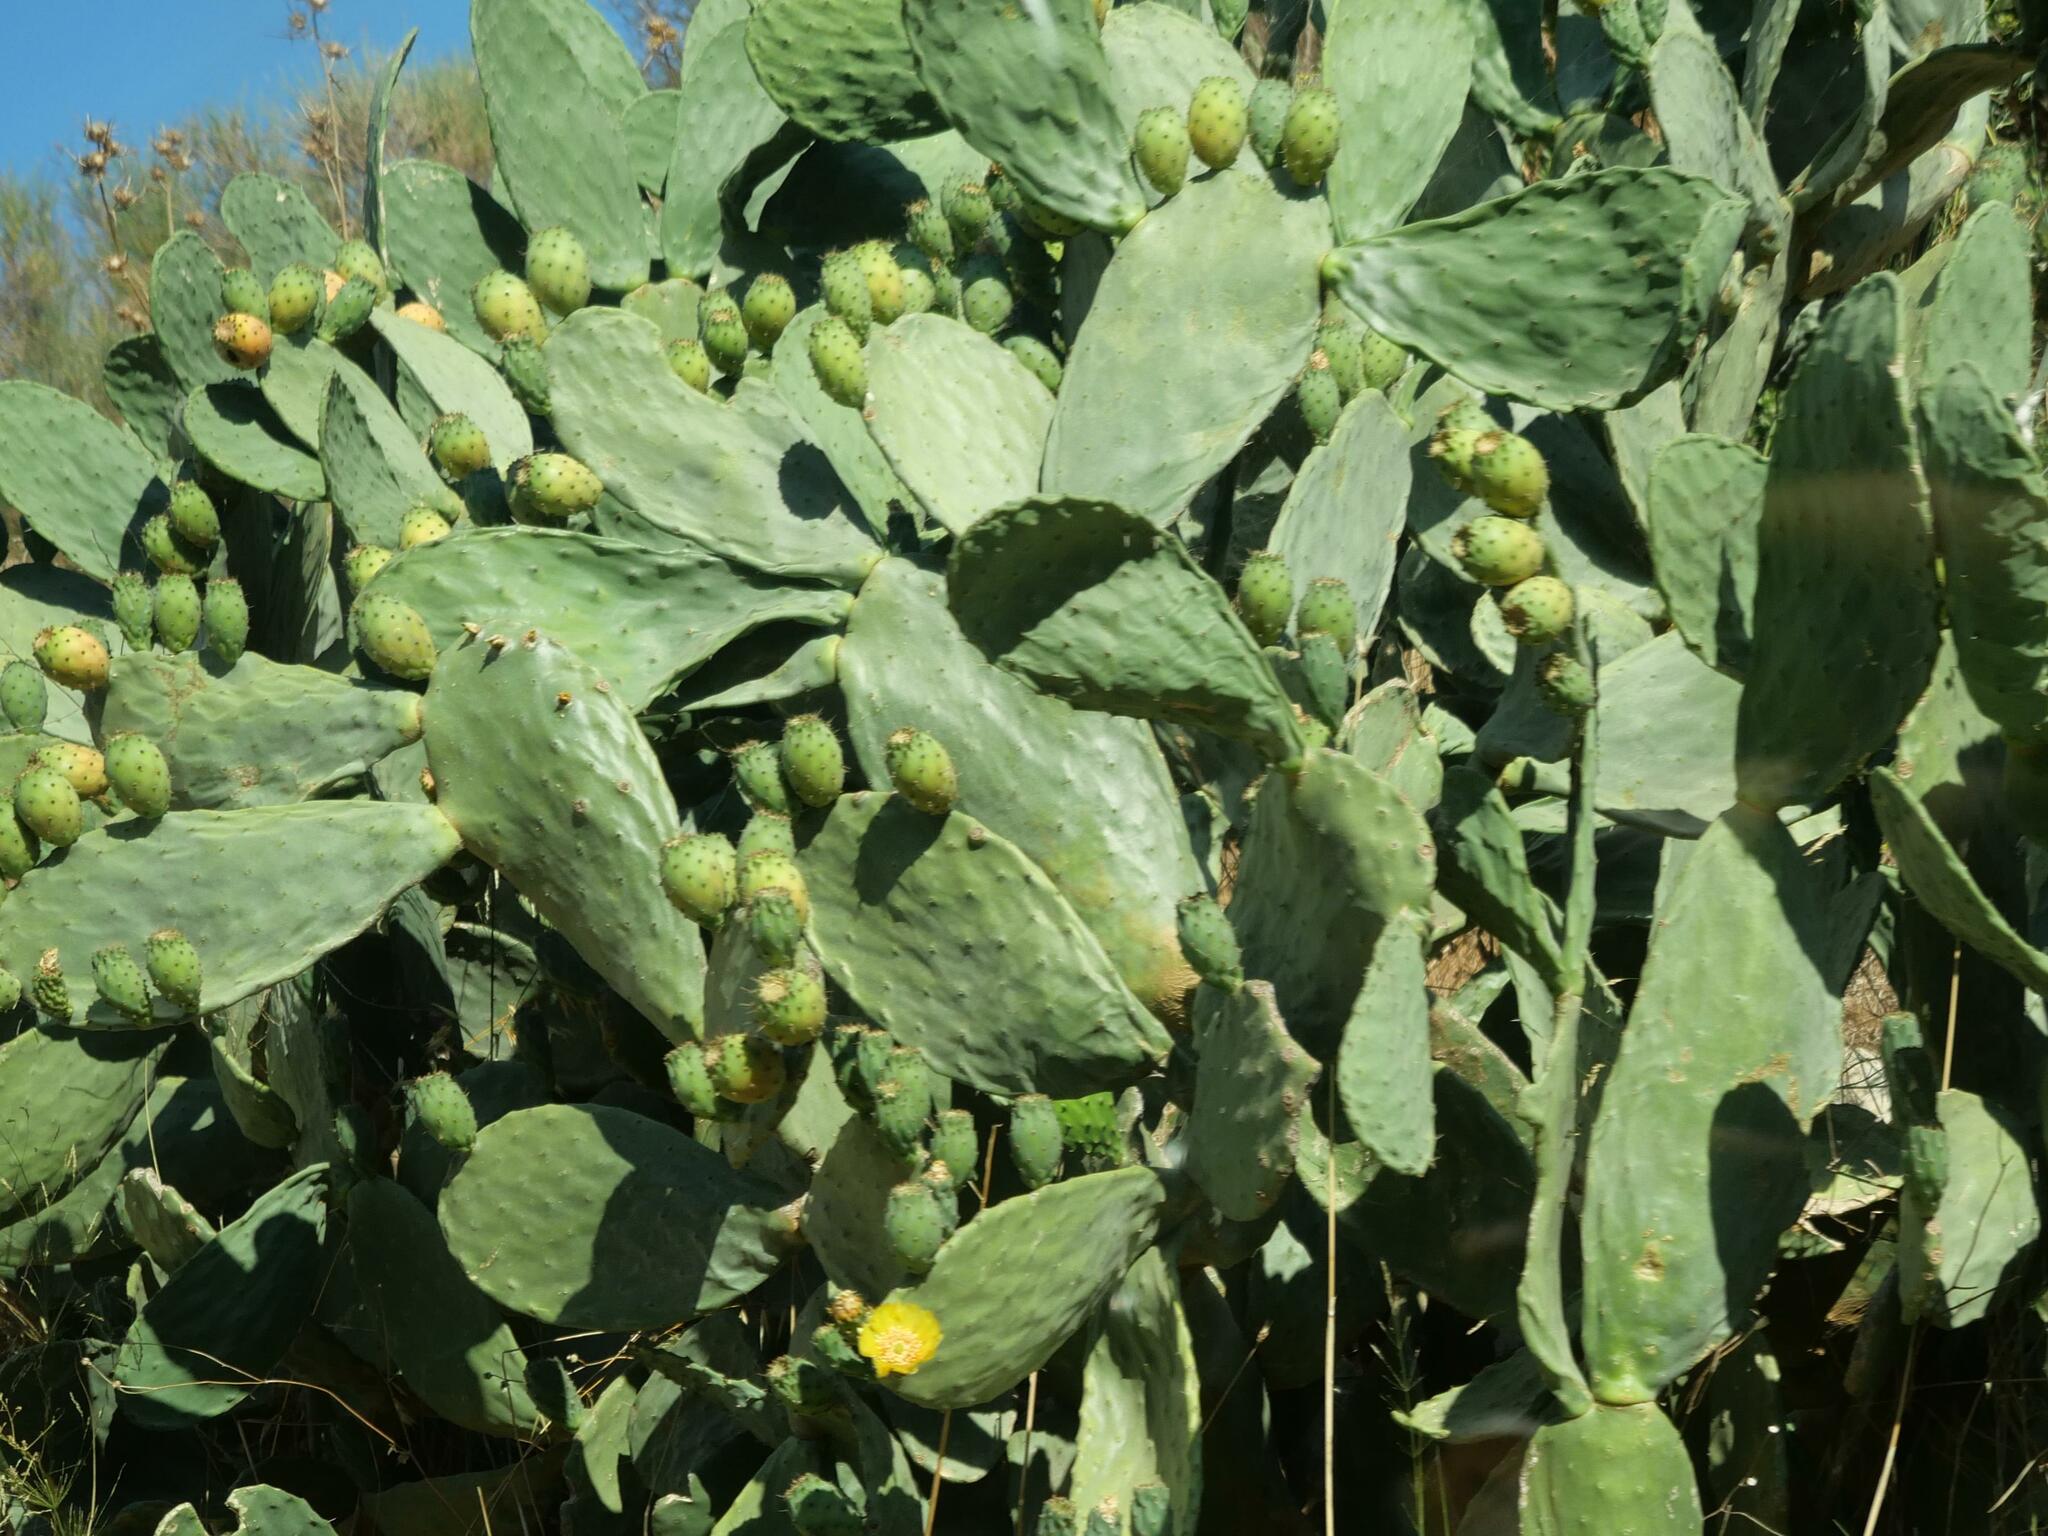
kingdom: Plantae
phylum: Tracheophyta
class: Magnoliopsida
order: Caryophyllales
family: Cactaceae
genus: Opuntia
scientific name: Opuntia ficus-indica
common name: Barbary fig
